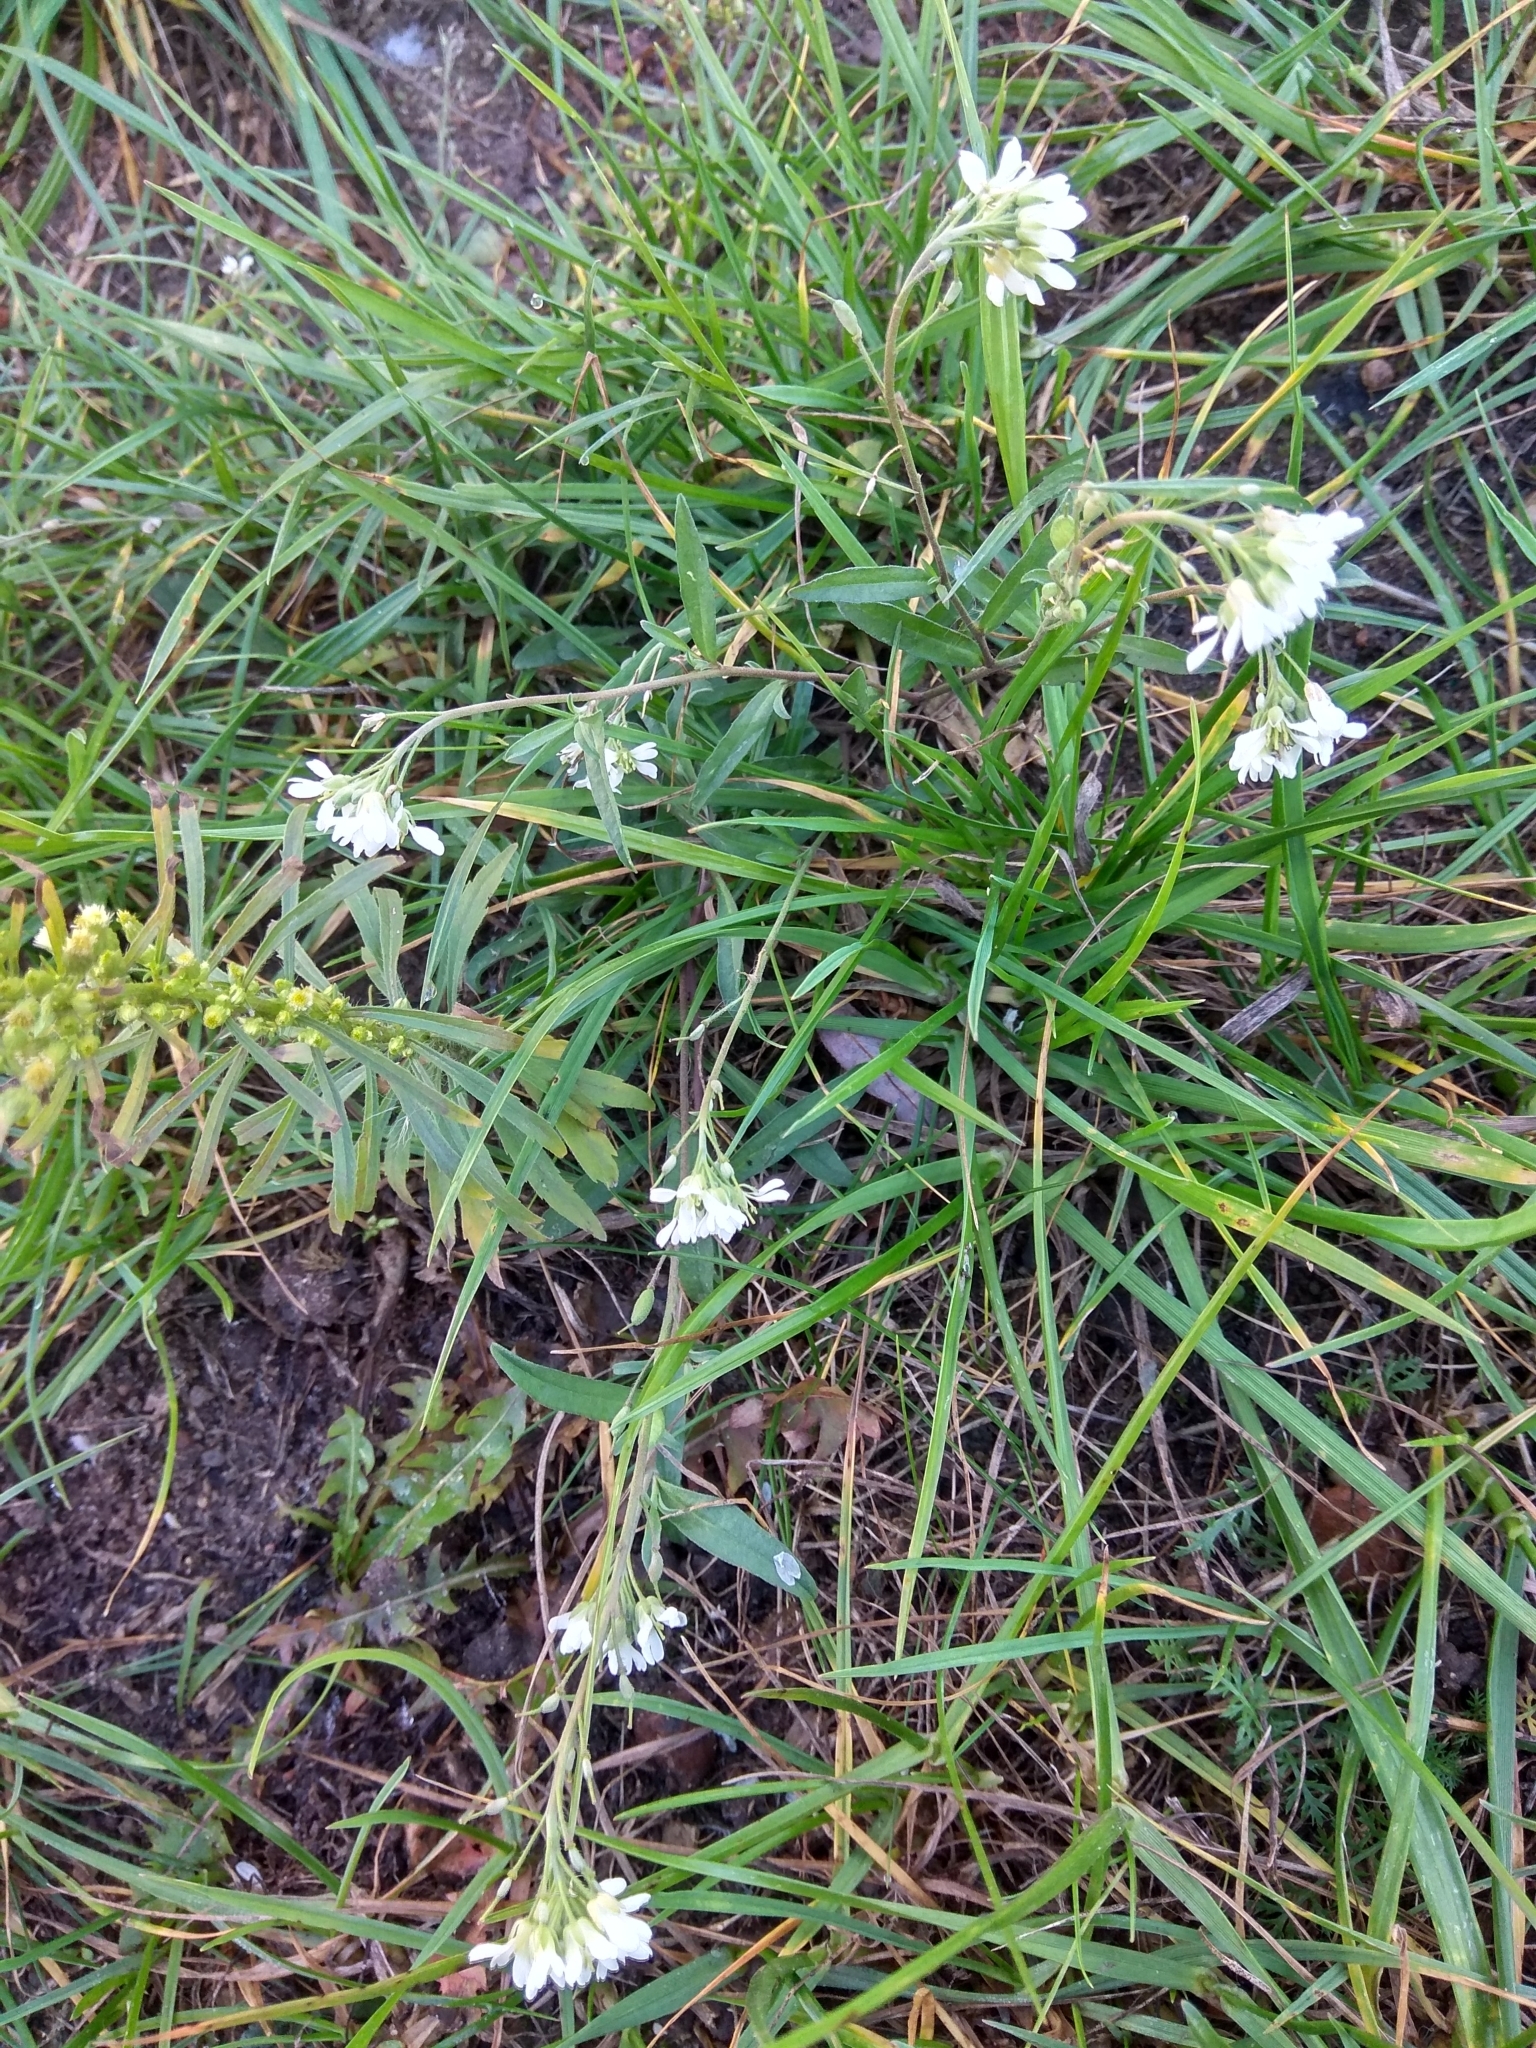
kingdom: Plantae
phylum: Tracheophyta
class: Magnoliopsida
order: Brassicales
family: Brassicaceae
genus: Berteroa
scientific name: Berteroa incana
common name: Hoary alison
